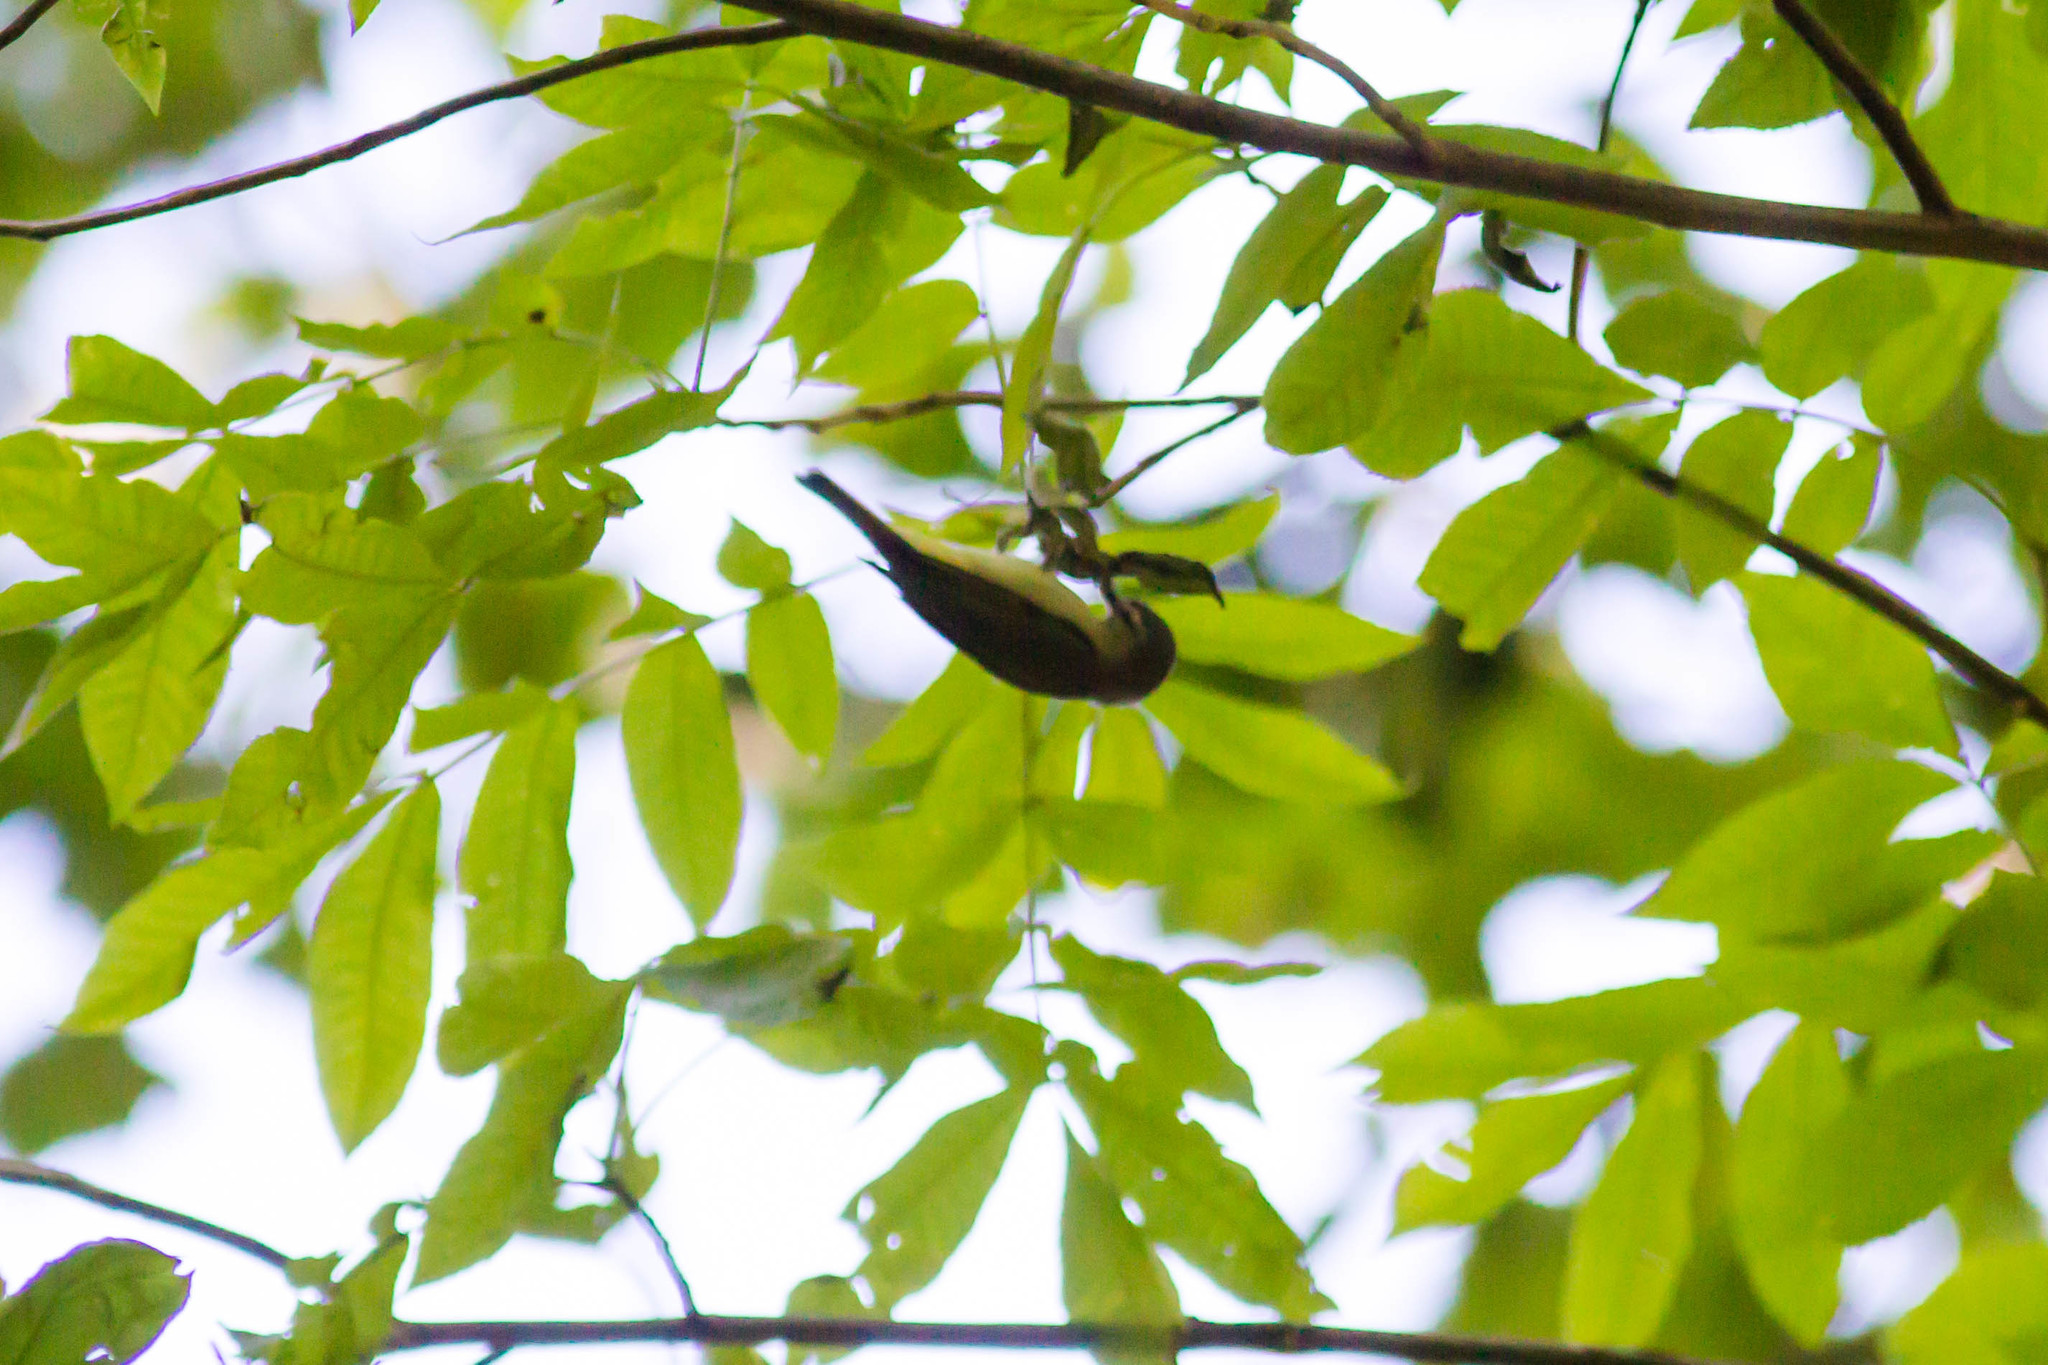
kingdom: Animalia
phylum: Chordata
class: Aves
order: Passeriformes
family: Vireonidae
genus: Vireo
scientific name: Vireo olivaceus
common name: Red-eyed vireo
